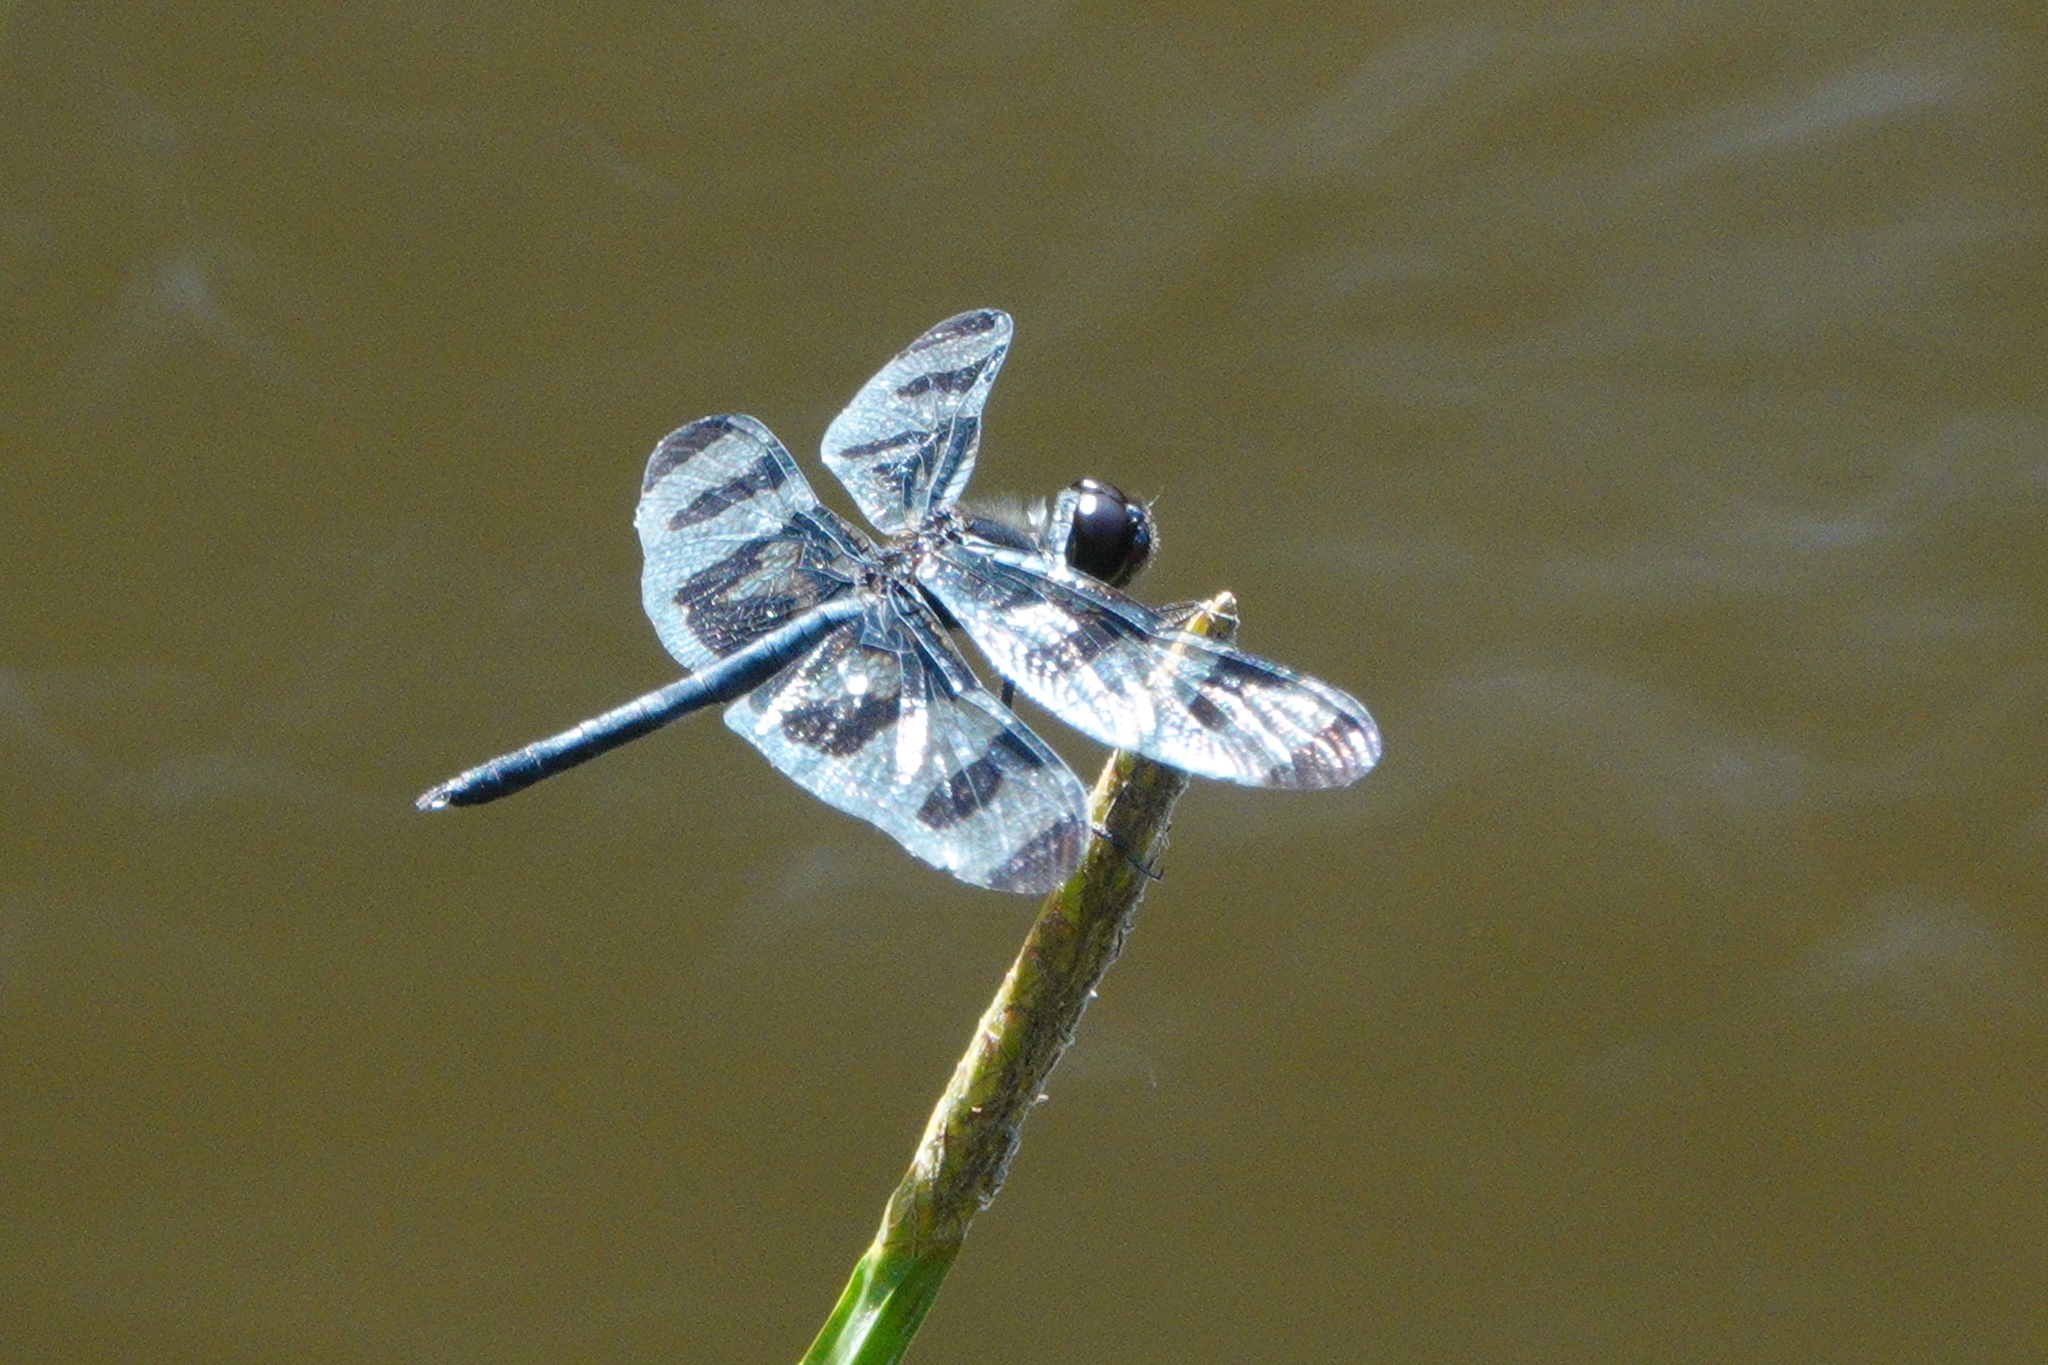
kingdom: Animalia
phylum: Arthropoda
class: Insecta
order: Odonata
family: Libellulidae
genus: Celithemis
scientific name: Celithemis fasciata
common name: Banded pennant
